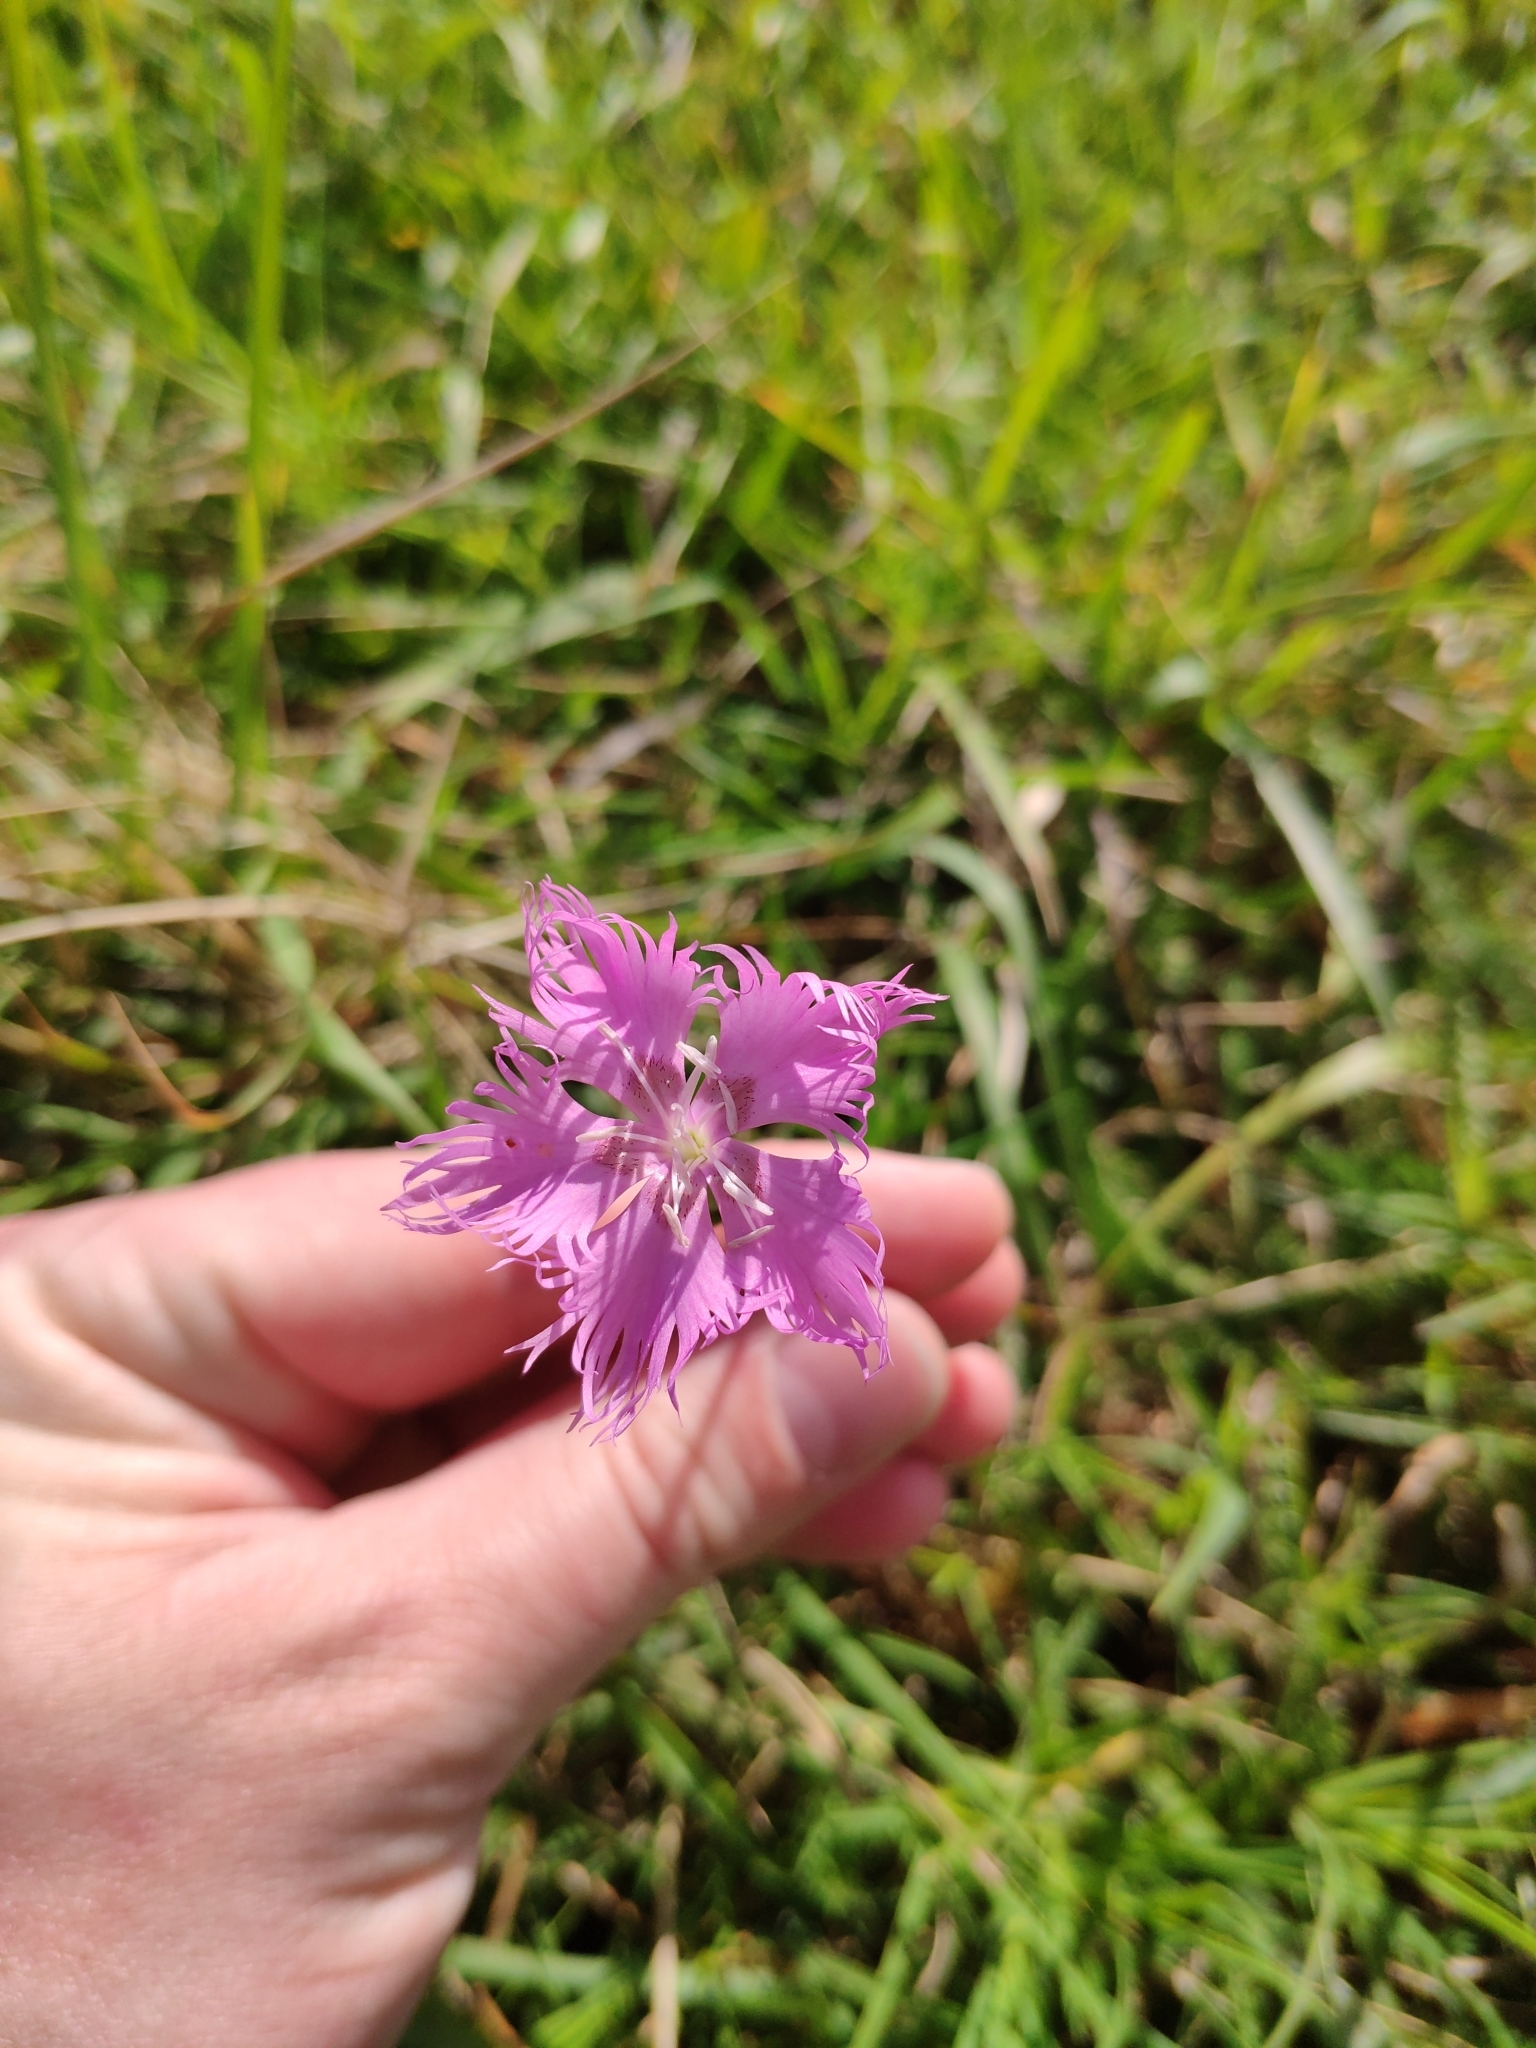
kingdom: Plantae
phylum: Tracheophyta
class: Magnoliopsida
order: Caryophyllales
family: Caryophyllaceae
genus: Dianthus
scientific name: Dianthus hyssopifolius
